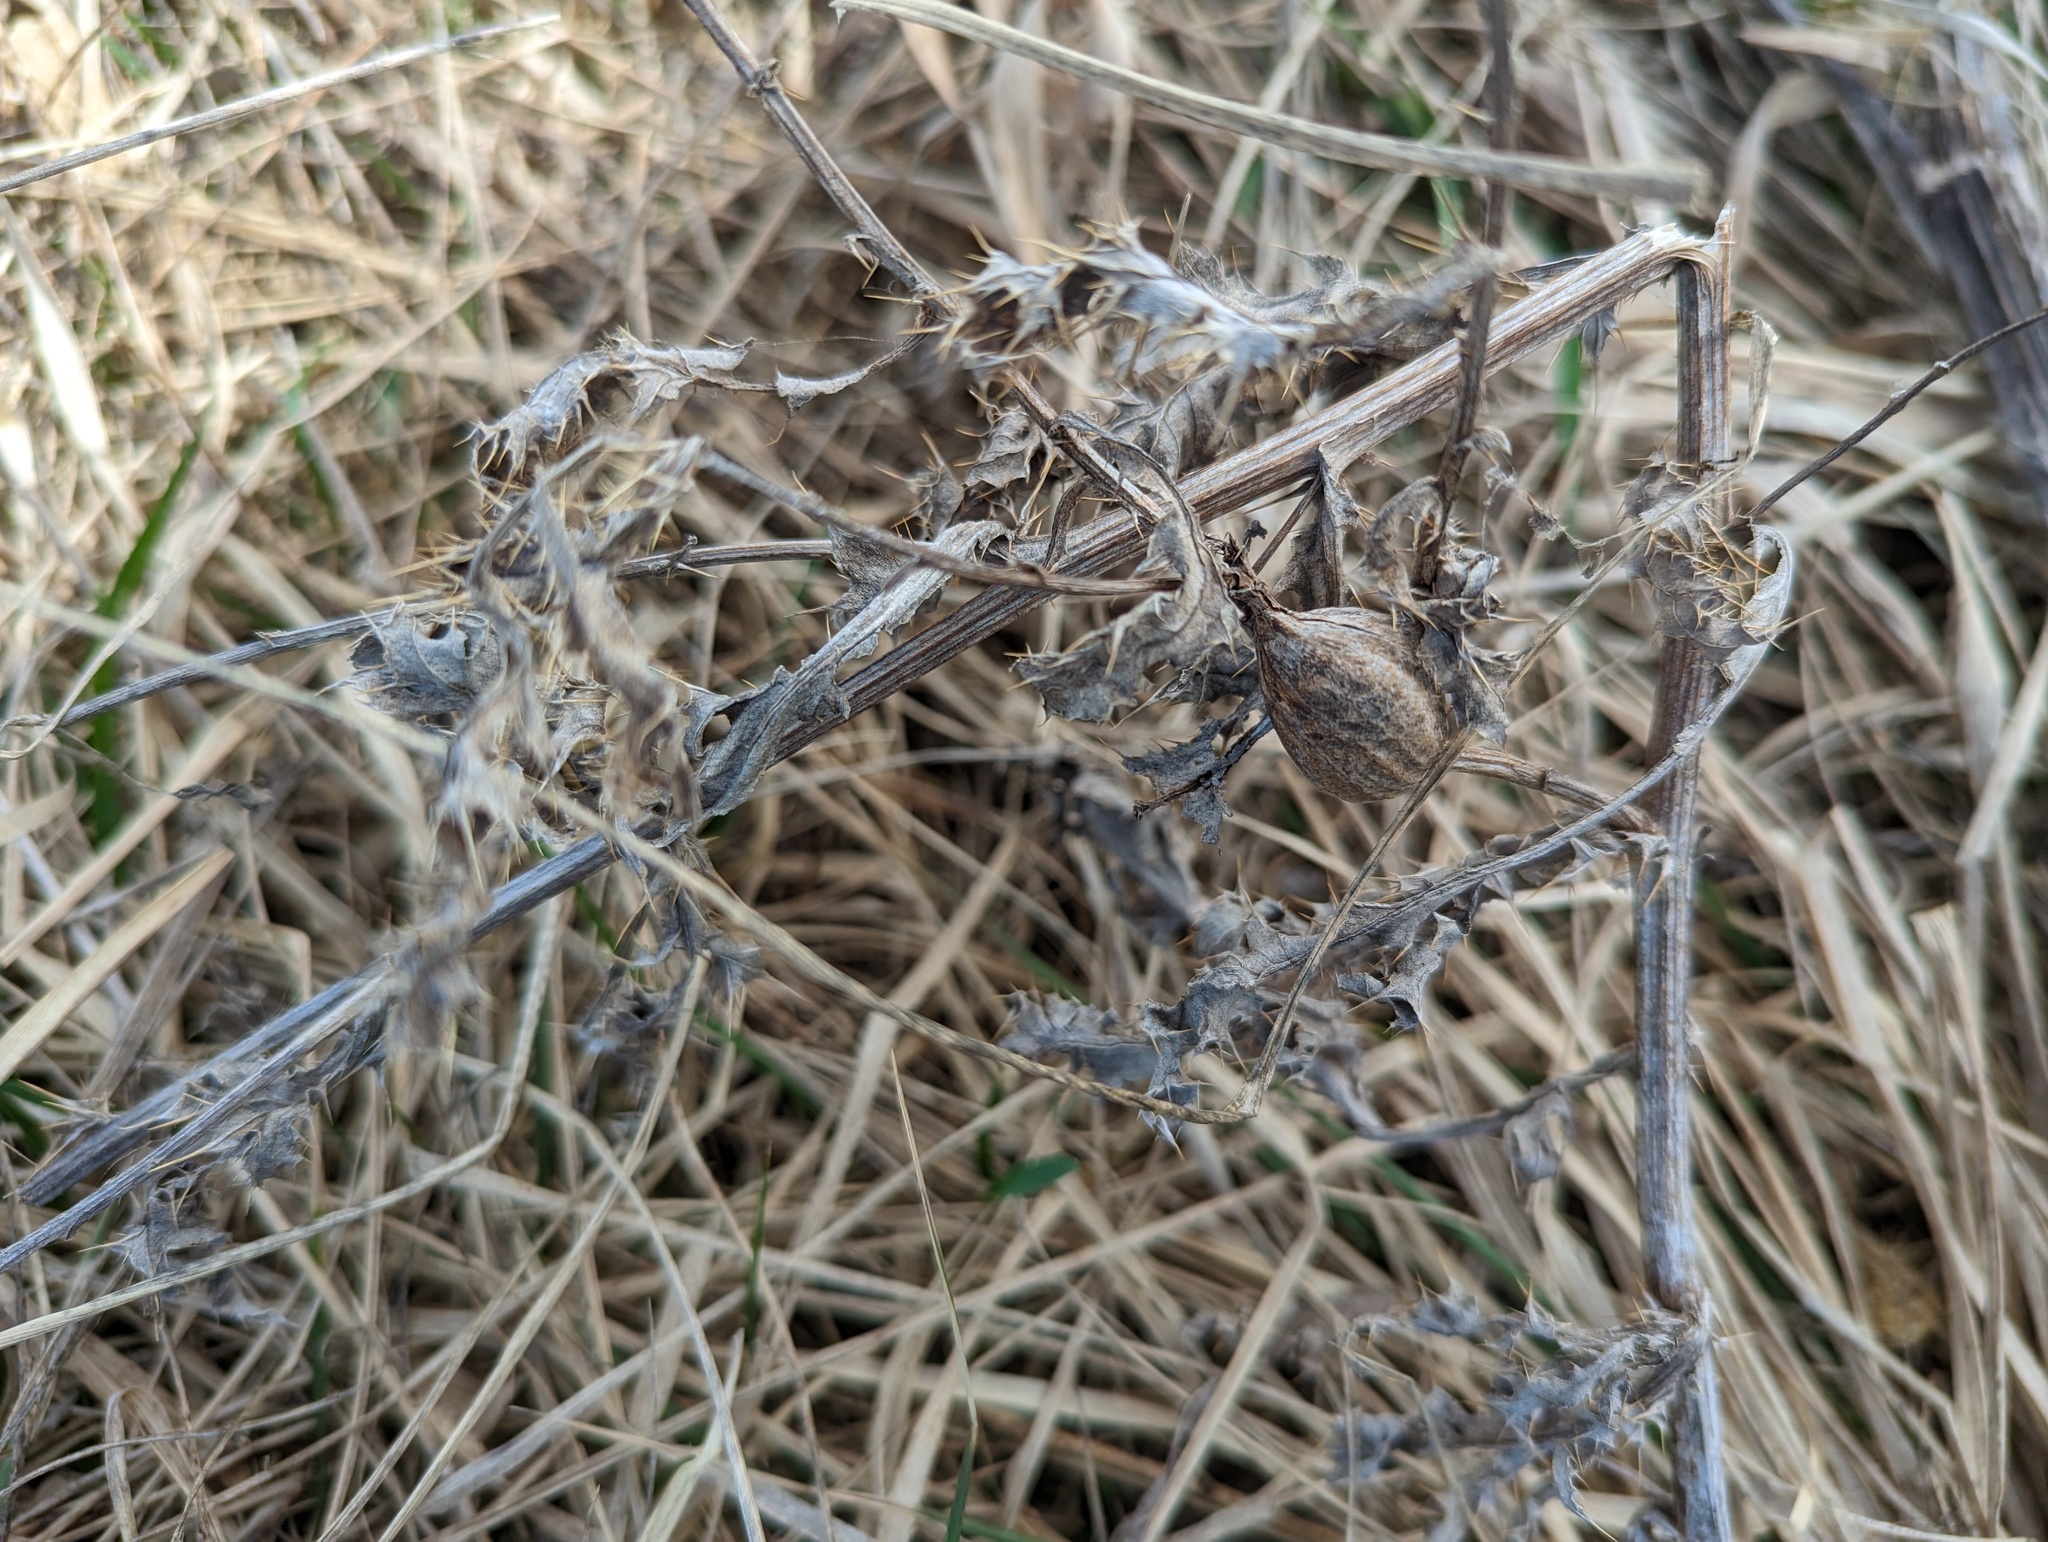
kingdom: Animalia
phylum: Arthropoda
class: Insecta
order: Diptera
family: Tephritidae
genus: Urophora
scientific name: Urophora cardui
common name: Fruit fly
